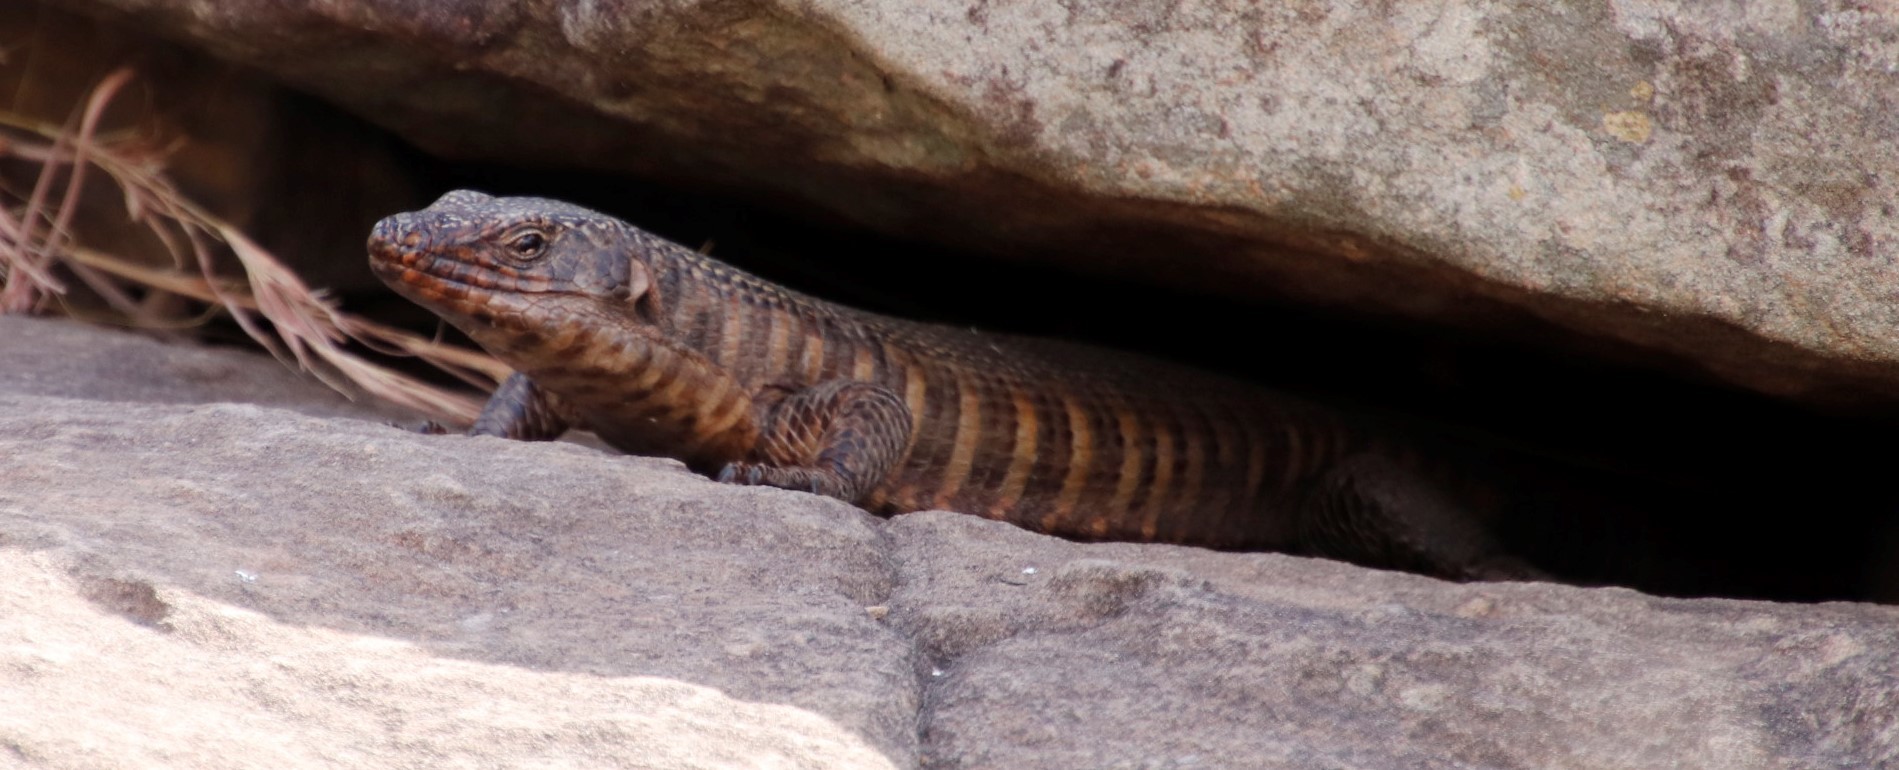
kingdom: Animalia
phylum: Chordata
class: Squamata
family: Gerrhosauridae
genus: Matobosaurus
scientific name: Matobosaurus validus
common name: Common giant plated lizard
